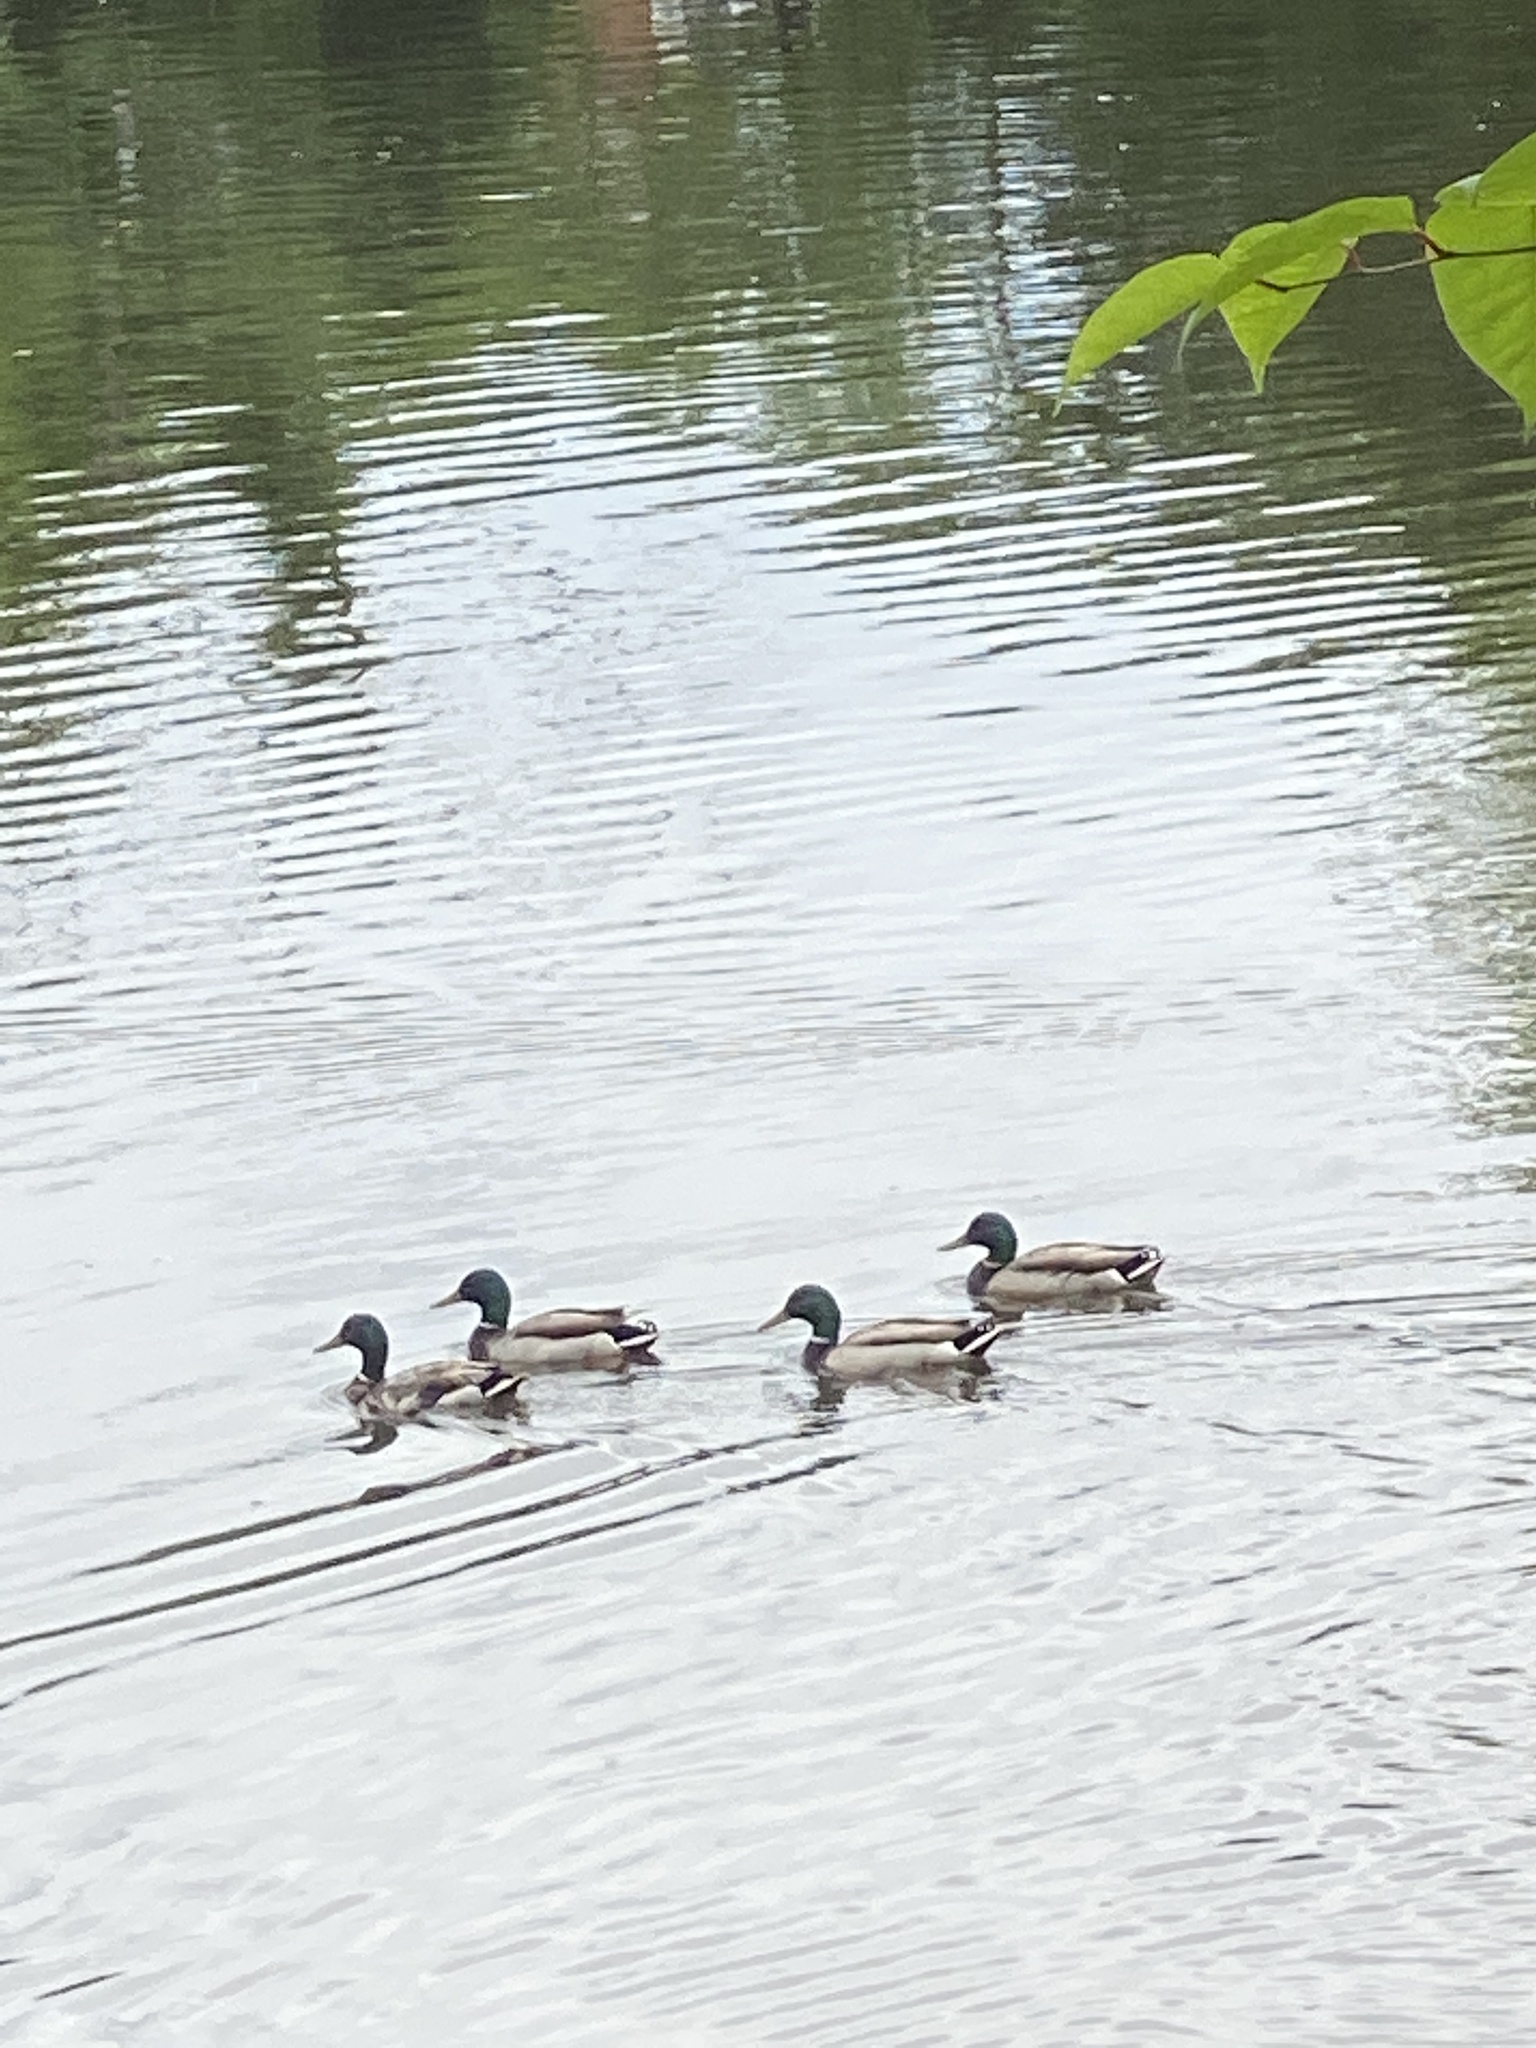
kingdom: Animalia
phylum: Chordata
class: Aves
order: Anseriformes
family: Anatidae
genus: Anas
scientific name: Anas platyrhynchos
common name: Mallard
